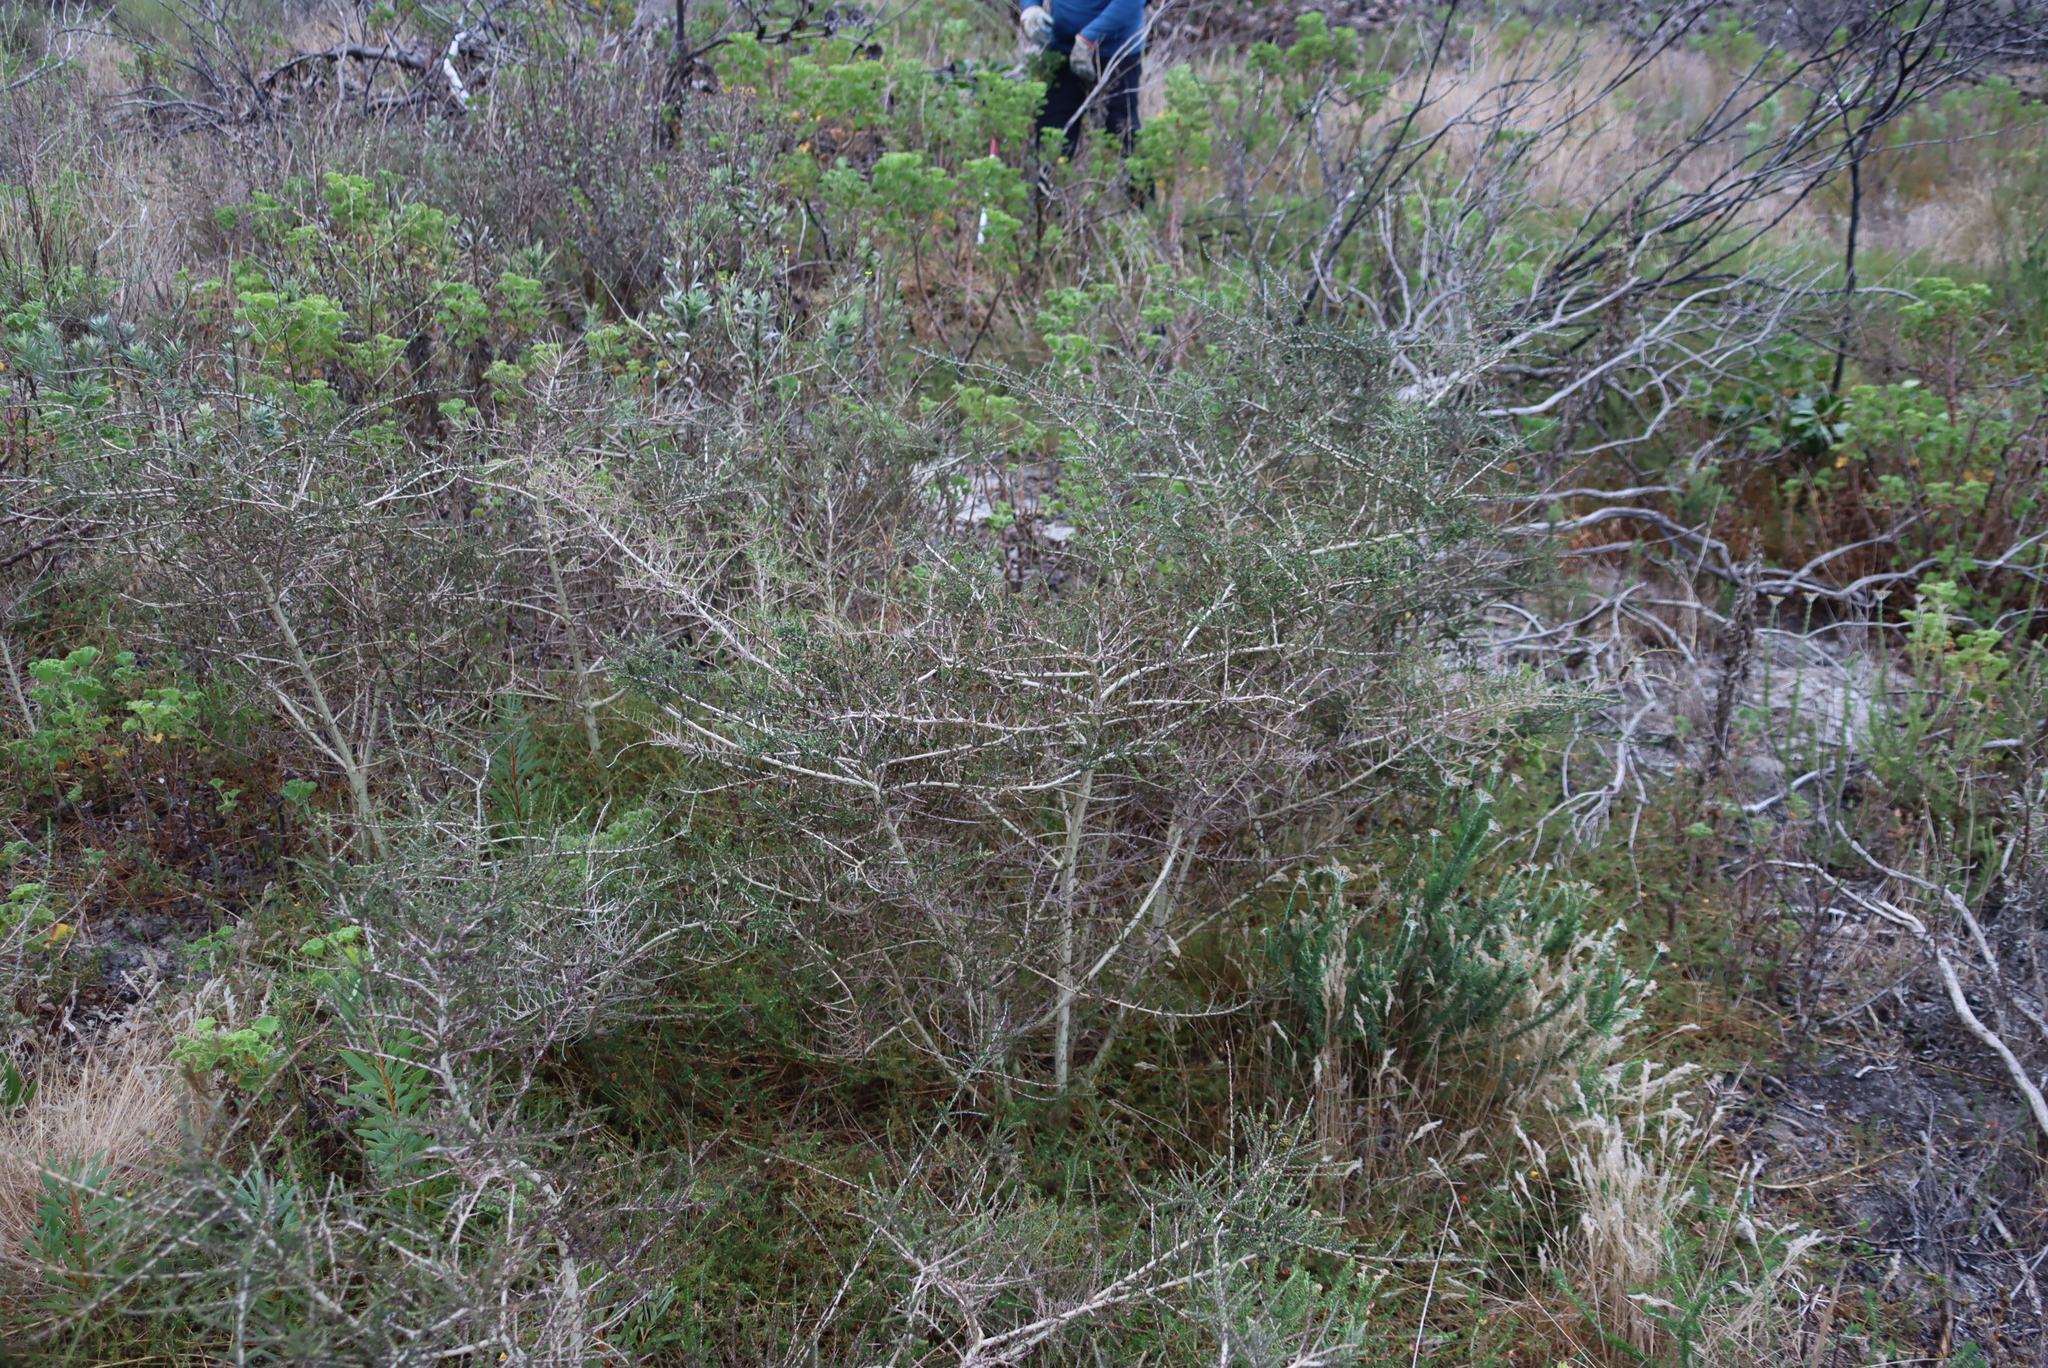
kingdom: Plantae
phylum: Tracheophyta
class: Magnoliopsida
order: Fabales
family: Fabaceae
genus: Aspalathus
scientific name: Aspalathus hispida
